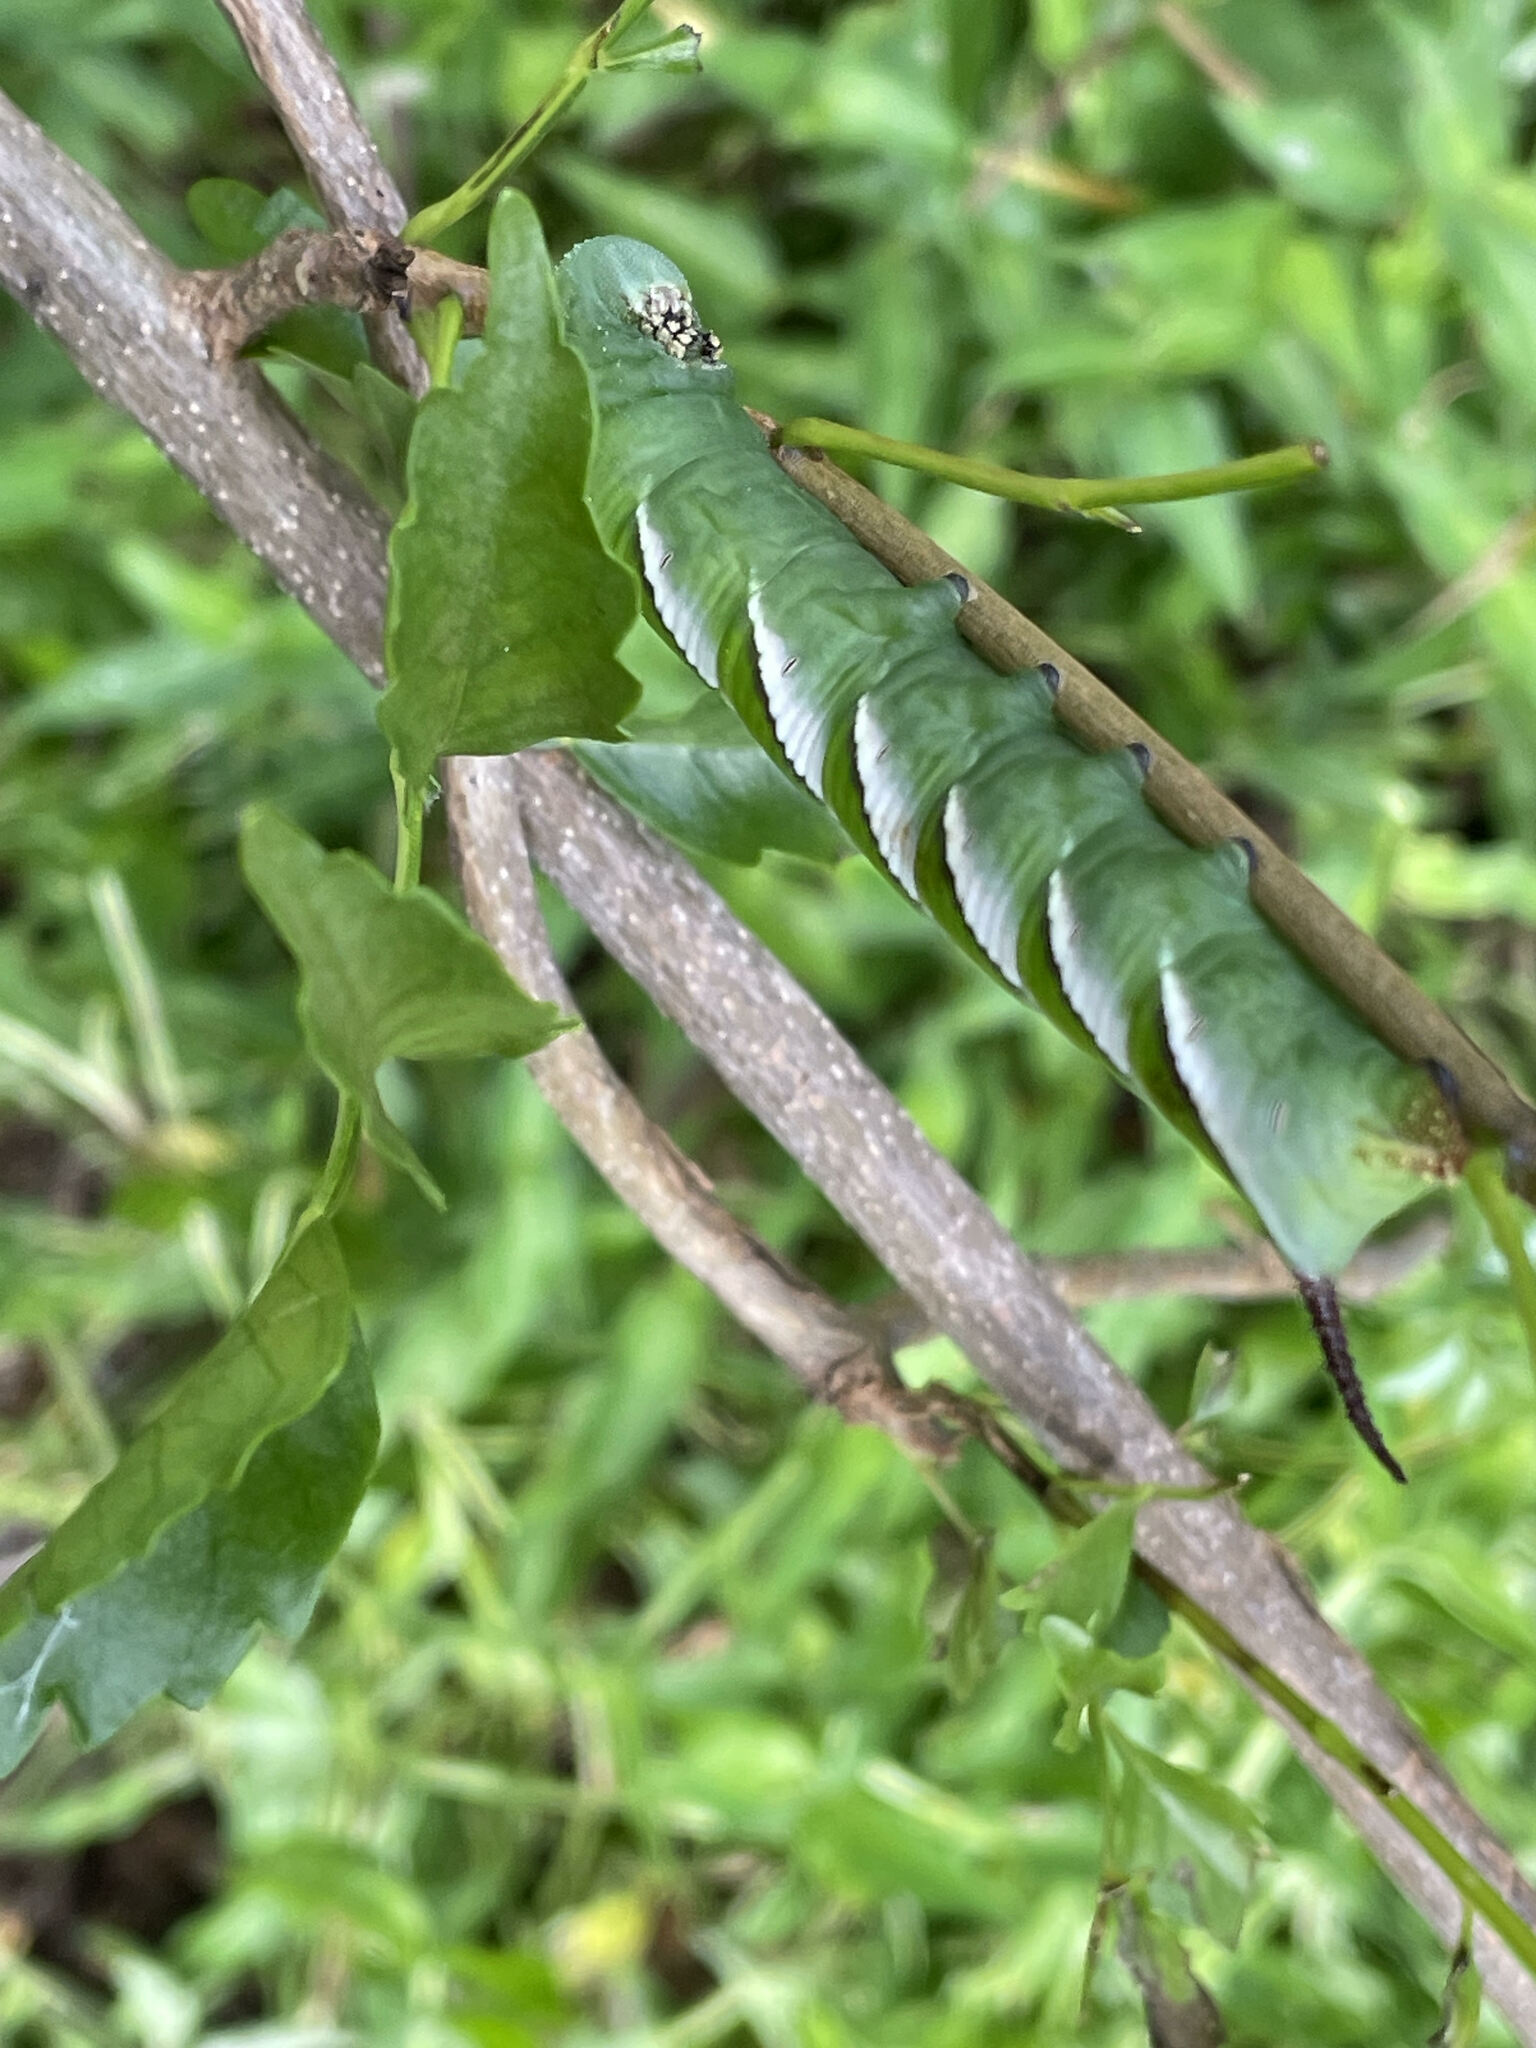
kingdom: Animalia
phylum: Arthropoda
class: Insecta
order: Lepidoptera
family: Sphingidae
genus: Psilogramma
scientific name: Psilogramma casuarinae
